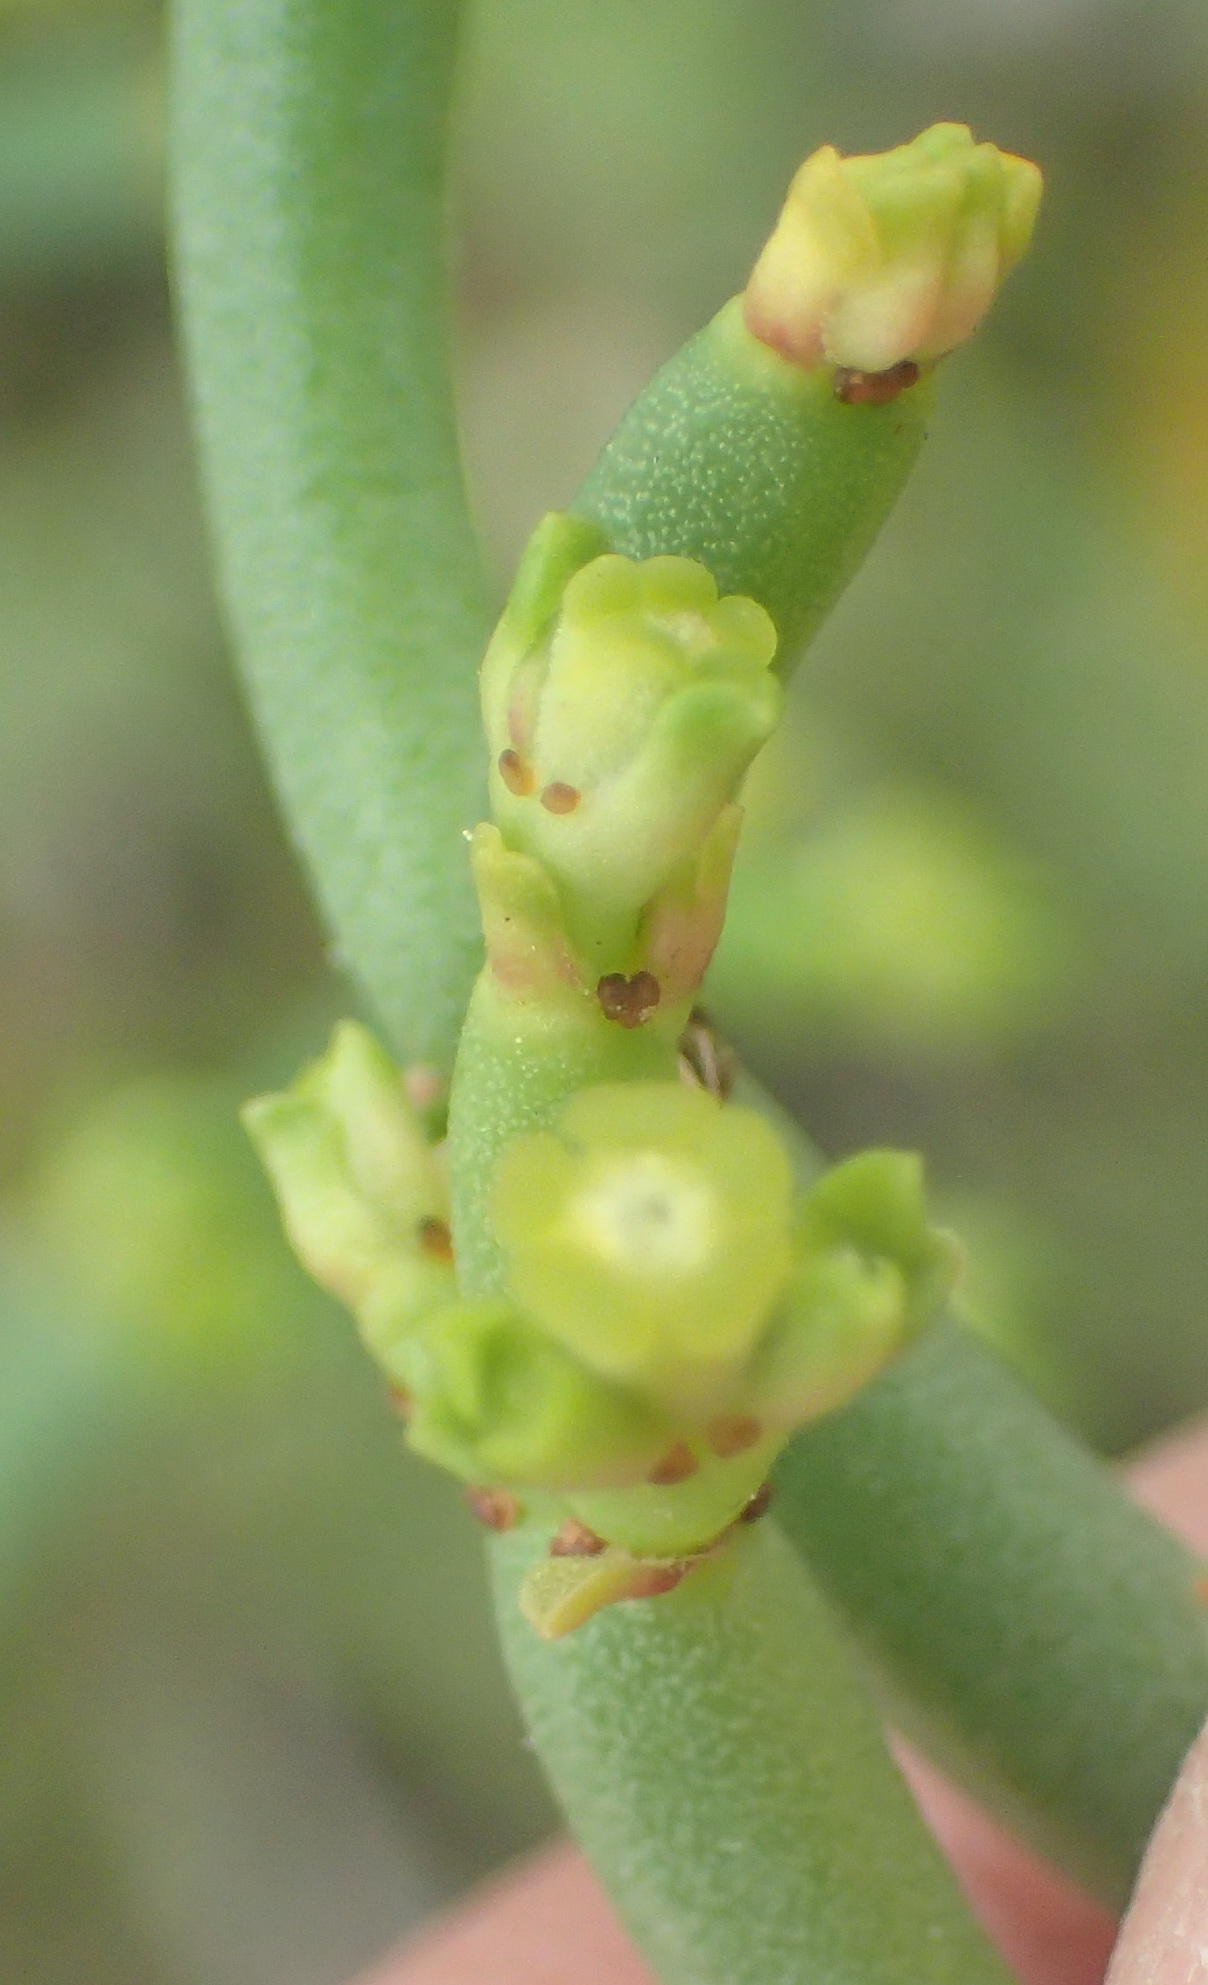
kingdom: Plantae
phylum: Tracheophyta
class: Magnoliopsida
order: Malpighiales
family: Euphorbiaceae
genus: Euphorbia
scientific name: Euphorbia burmanni
